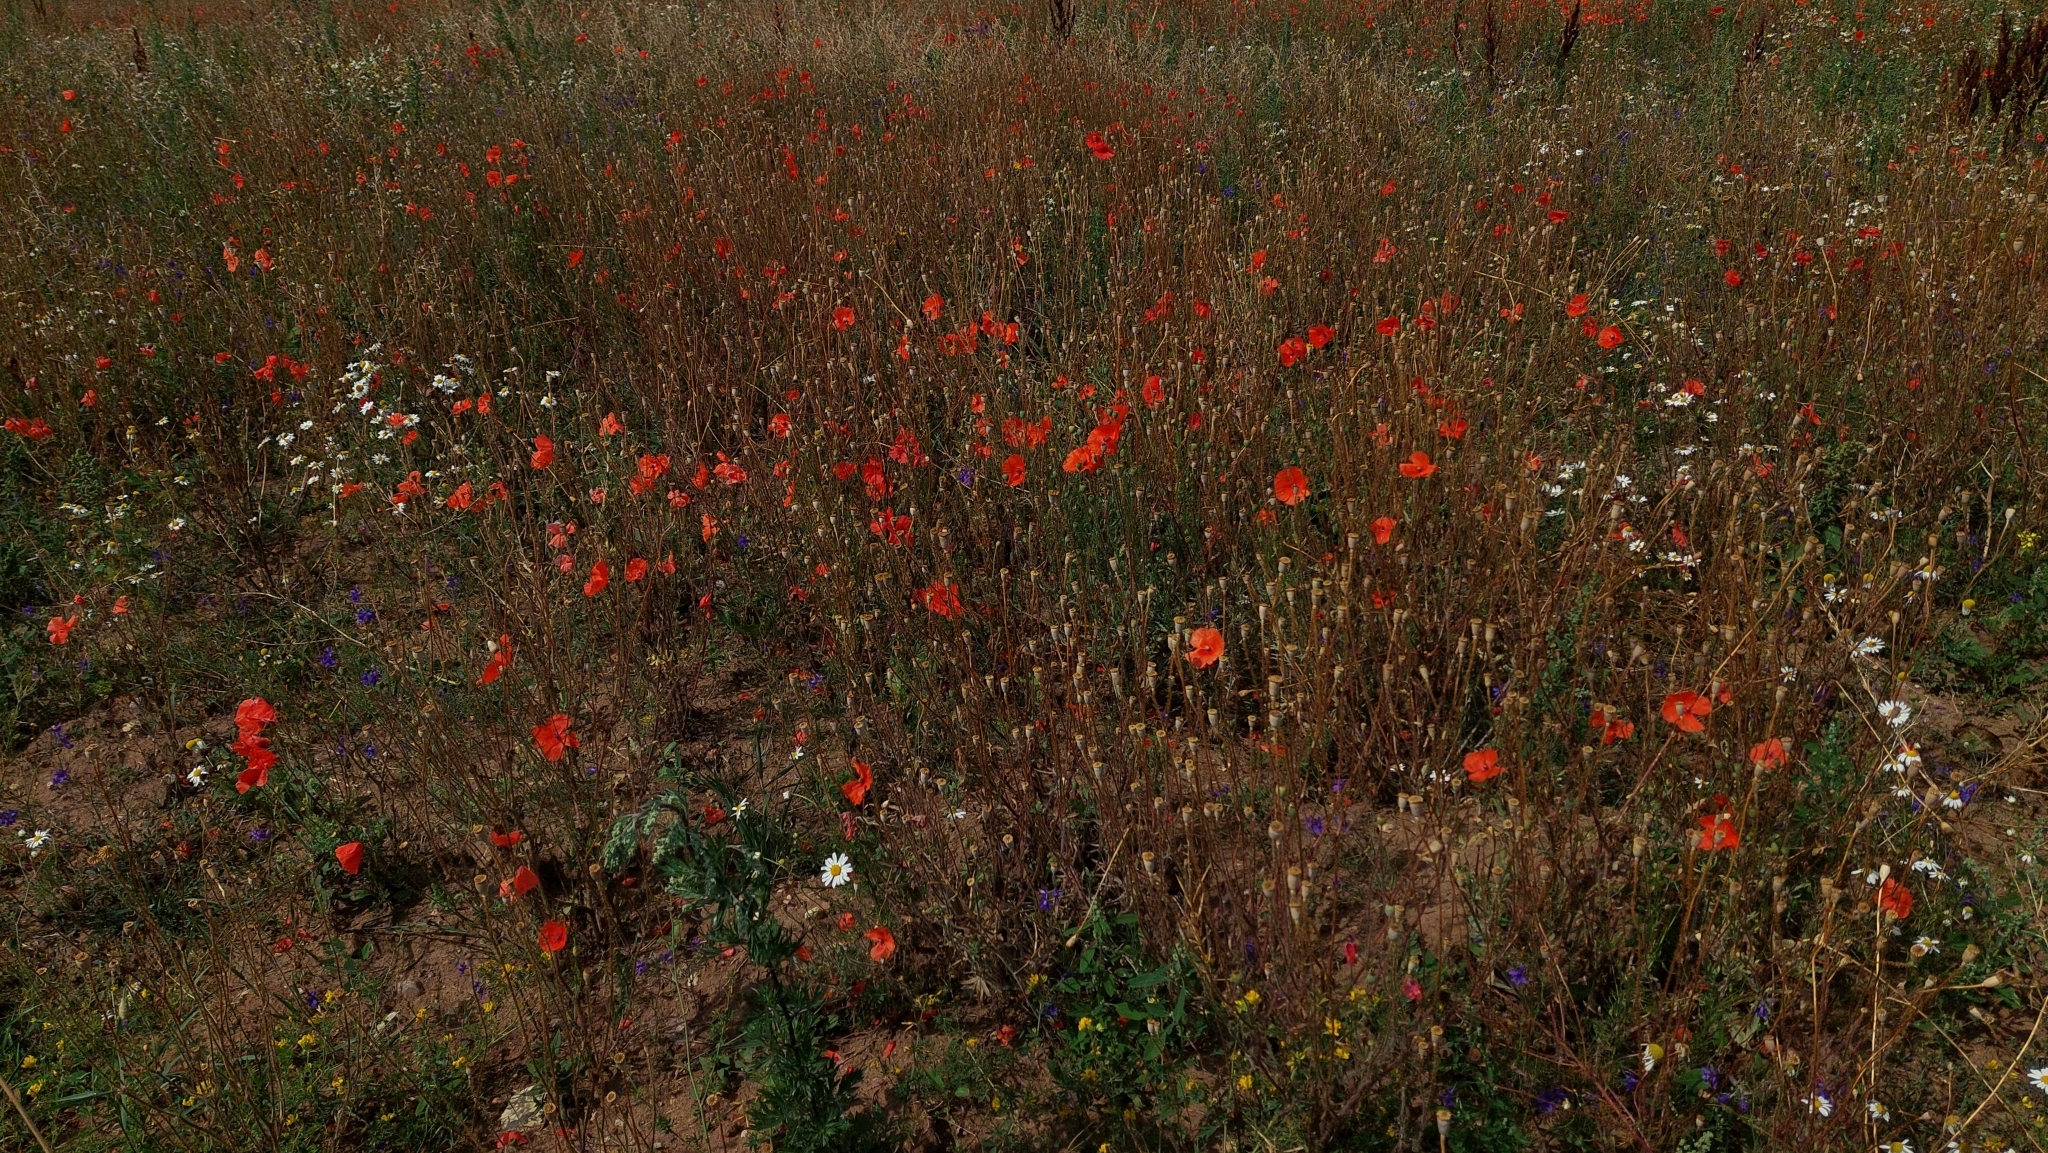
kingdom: Plantae
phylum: Tracheophyta
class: Magnoliopsida
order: Ranunculales
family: Papaveraceae
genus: Papaver
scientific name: Papaver rhoeas
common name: Corn poppy
